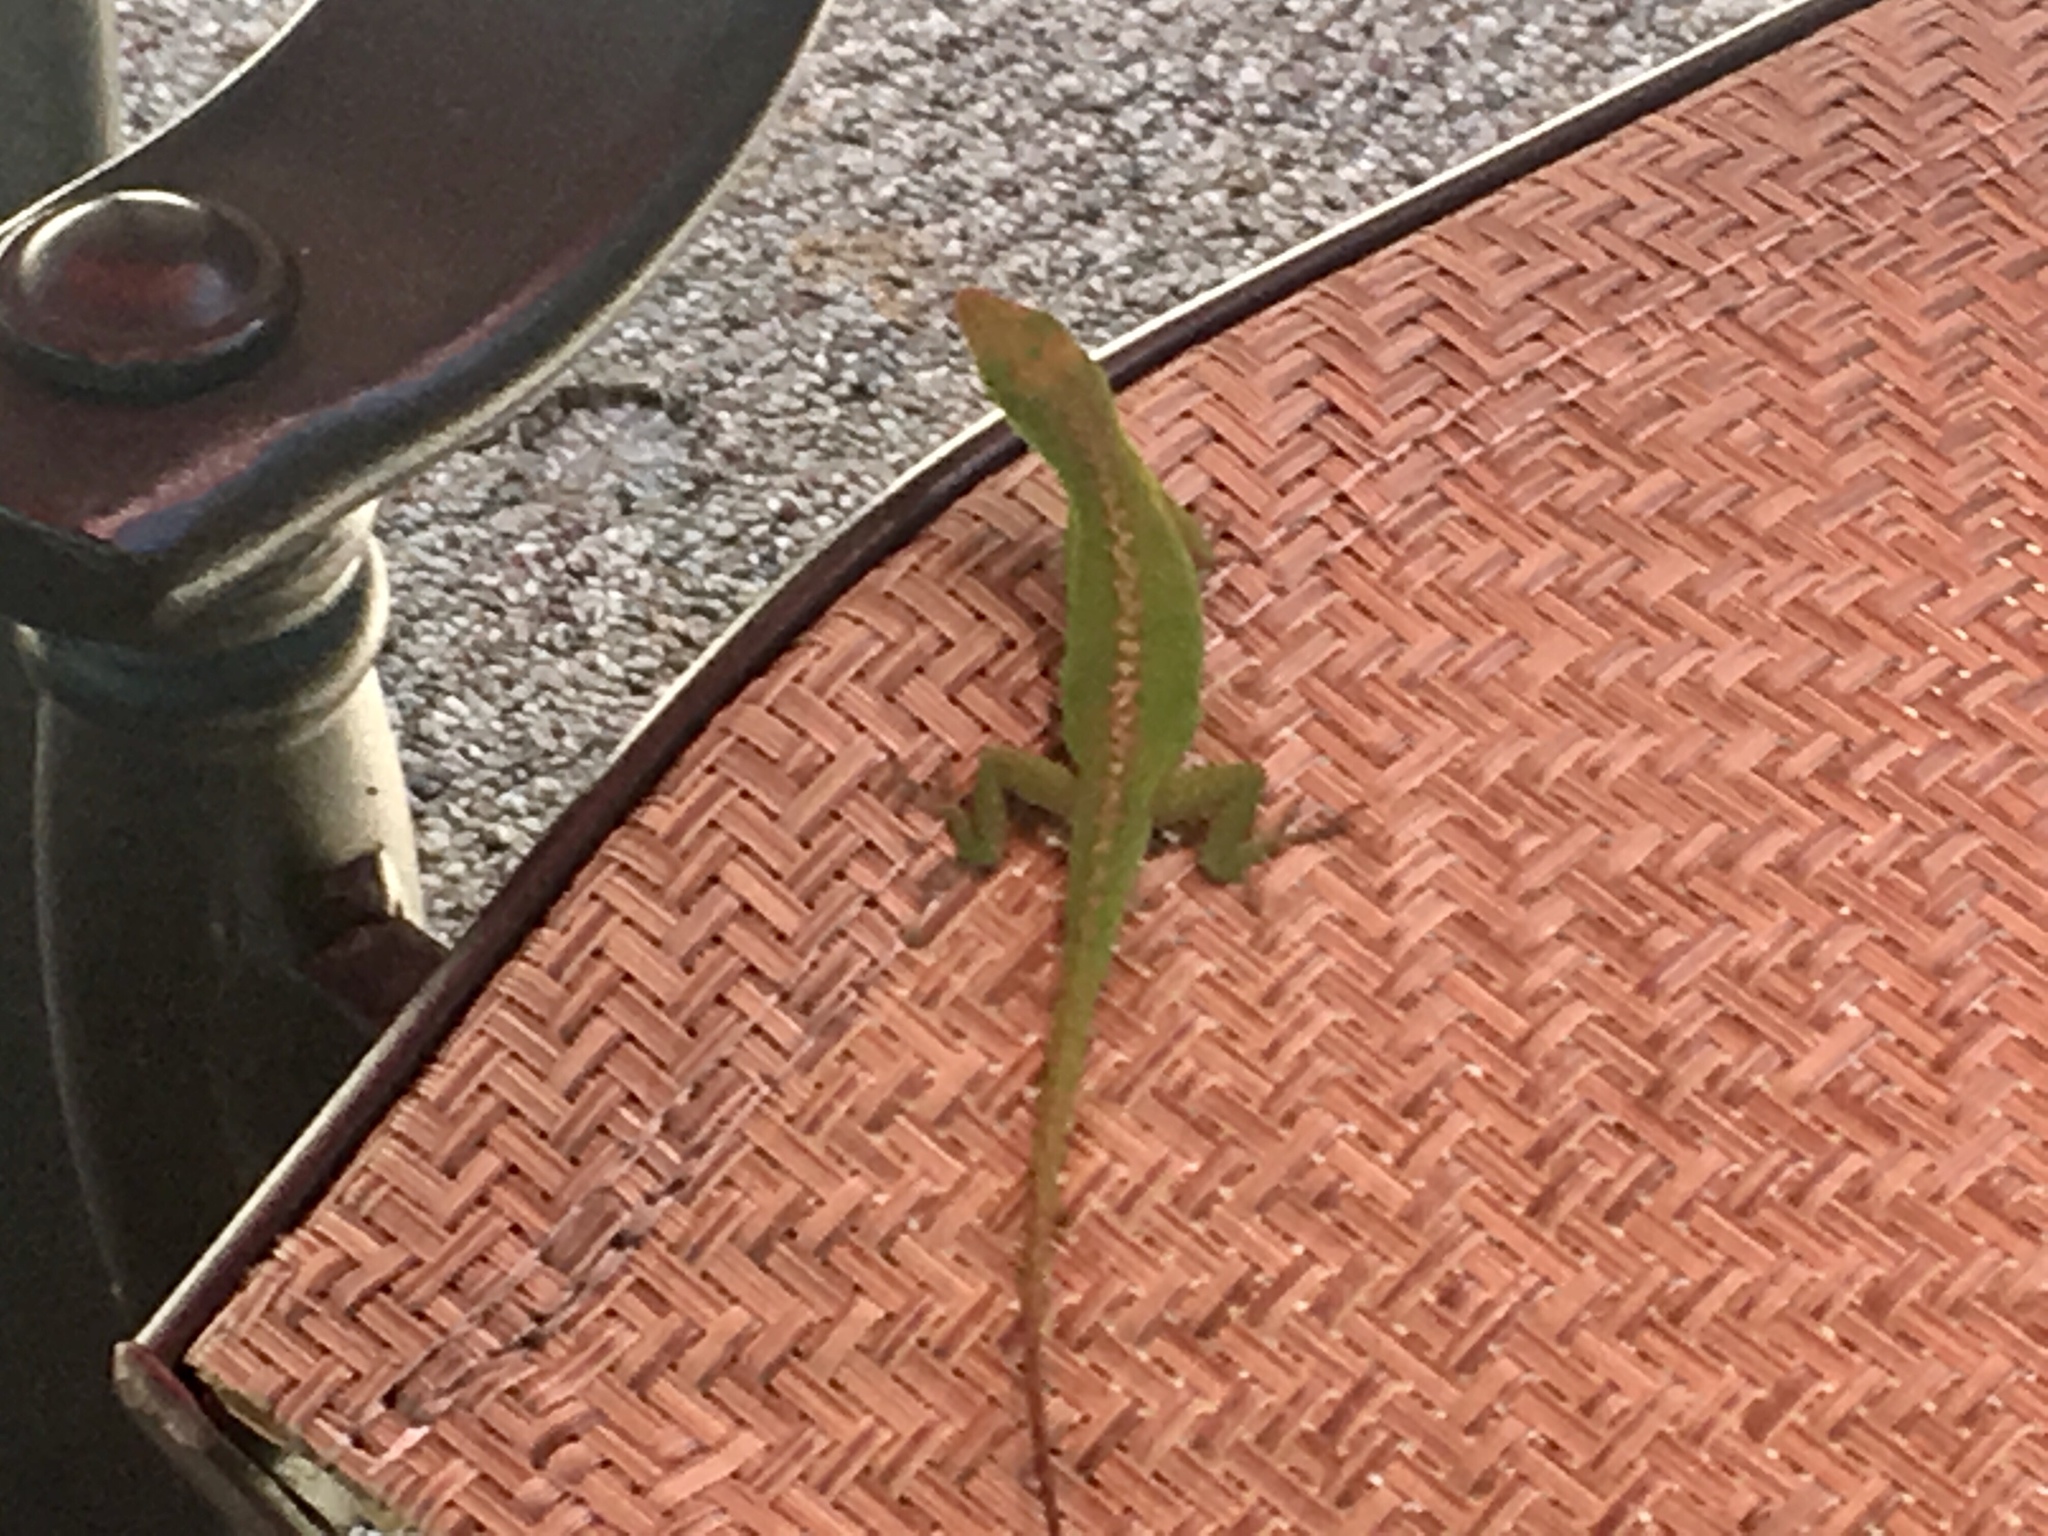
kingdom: Animalia
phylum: Chordata
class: Squamata
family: Dactyloidae
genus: Anolis
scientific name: Anolis carolinensis
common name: Green anole
